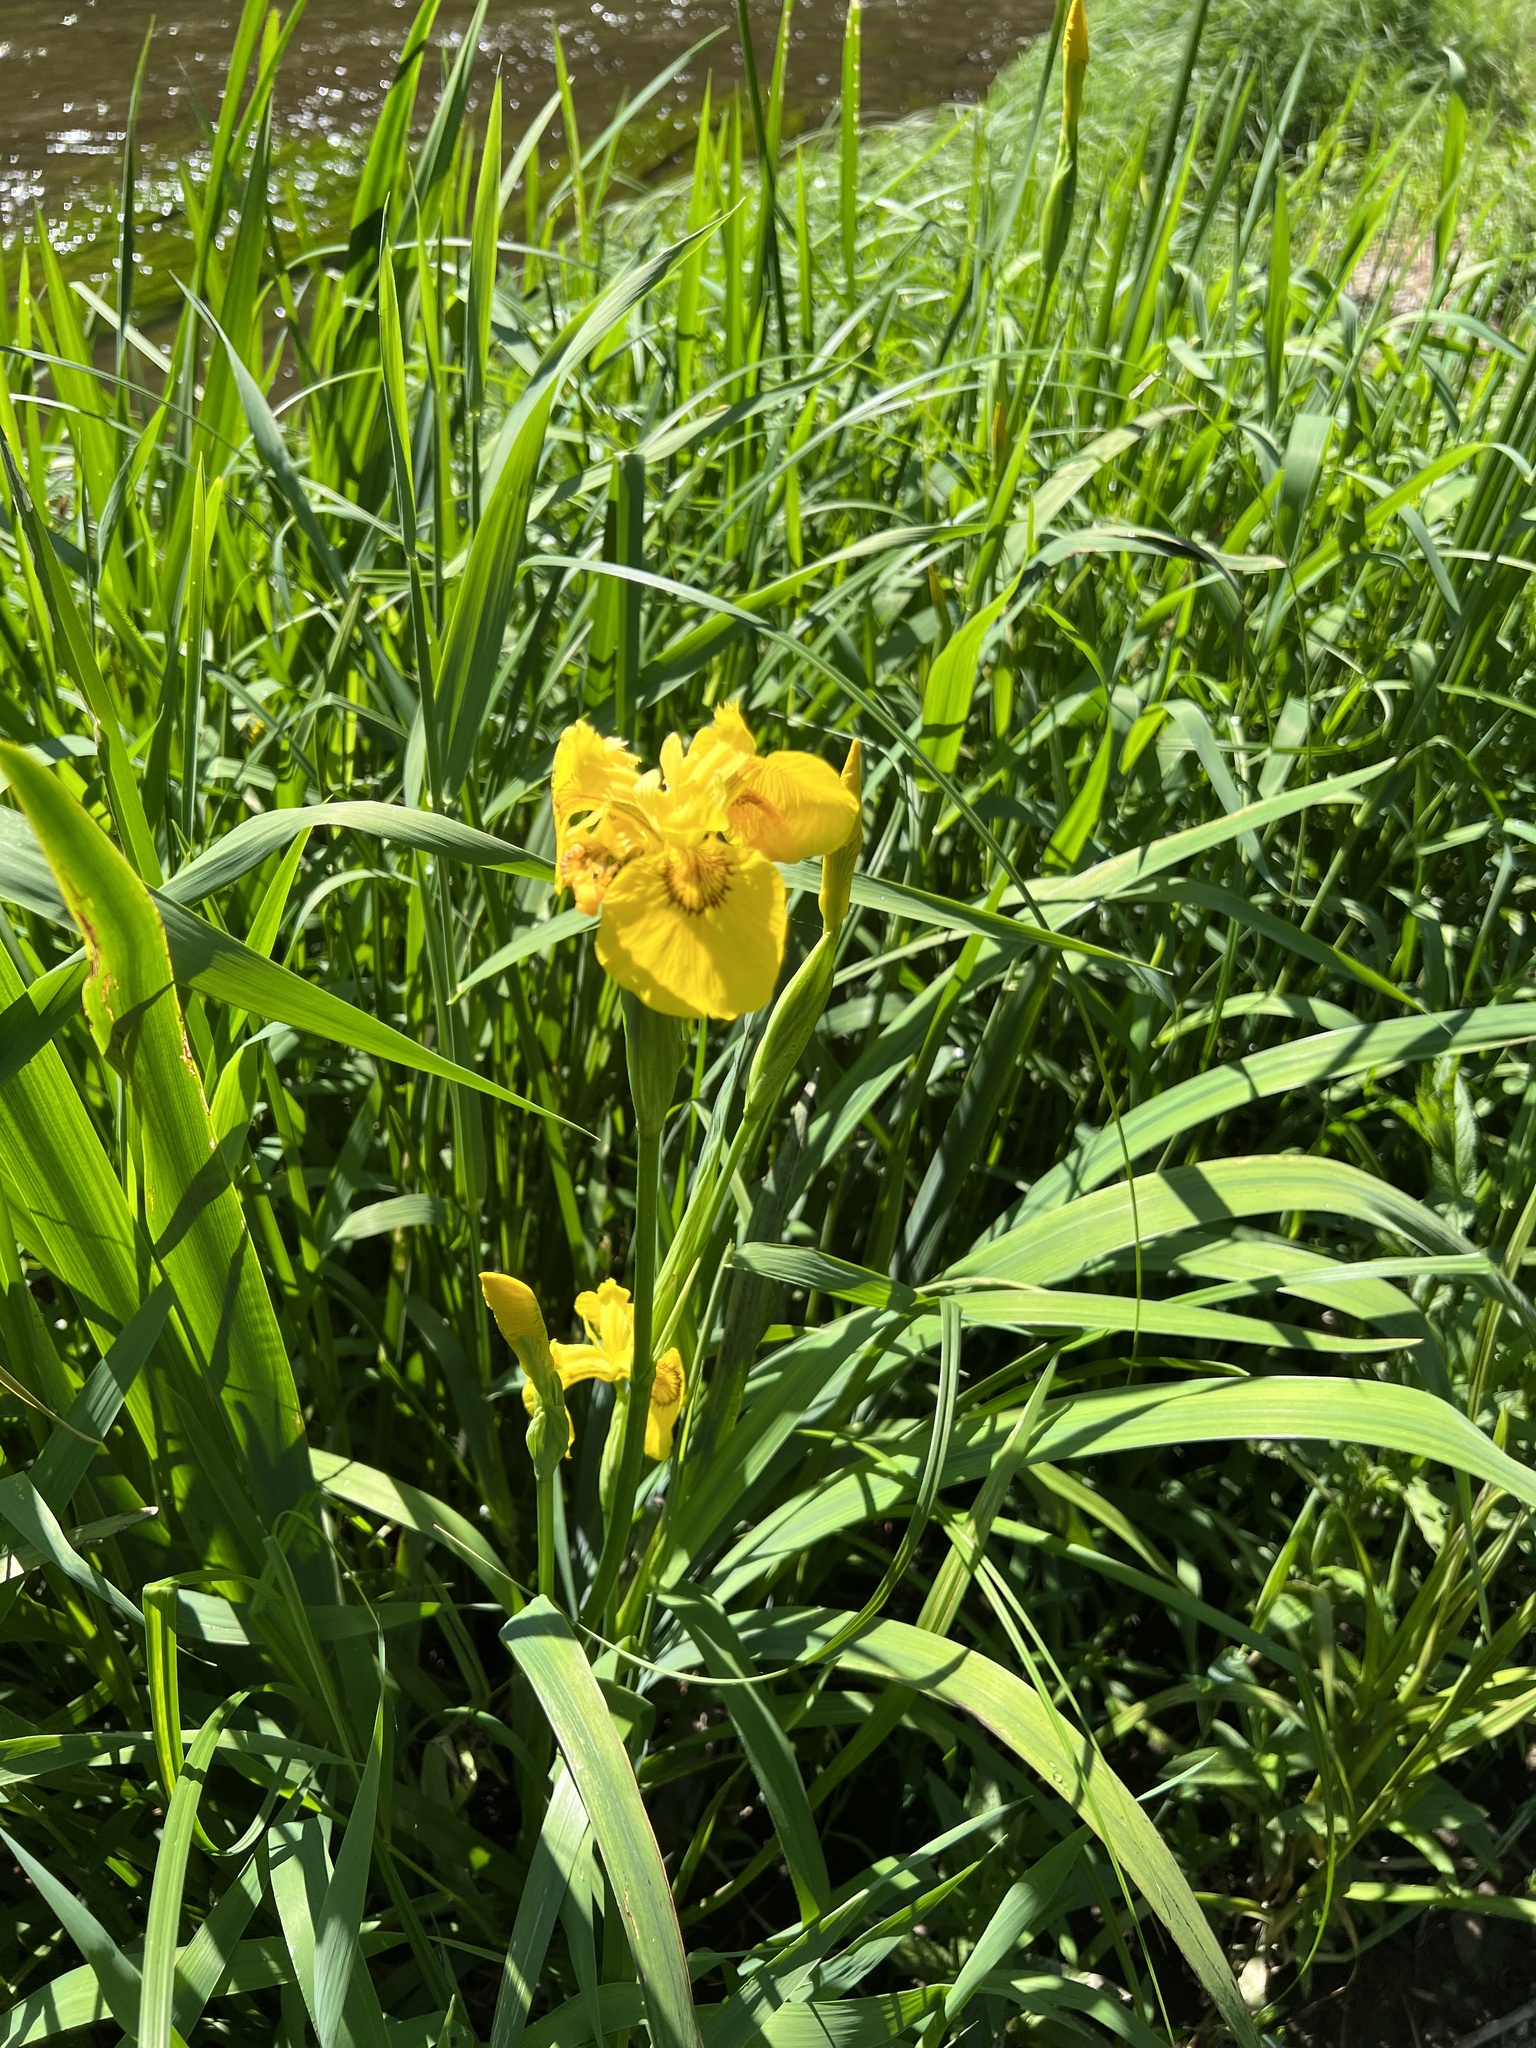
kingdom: Plantae
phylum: Tracheophyta
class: Liliopsida
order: Asparagales
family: Iridaceae
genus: Iris
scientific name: Iris pseudacorus
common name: Yellow flag
